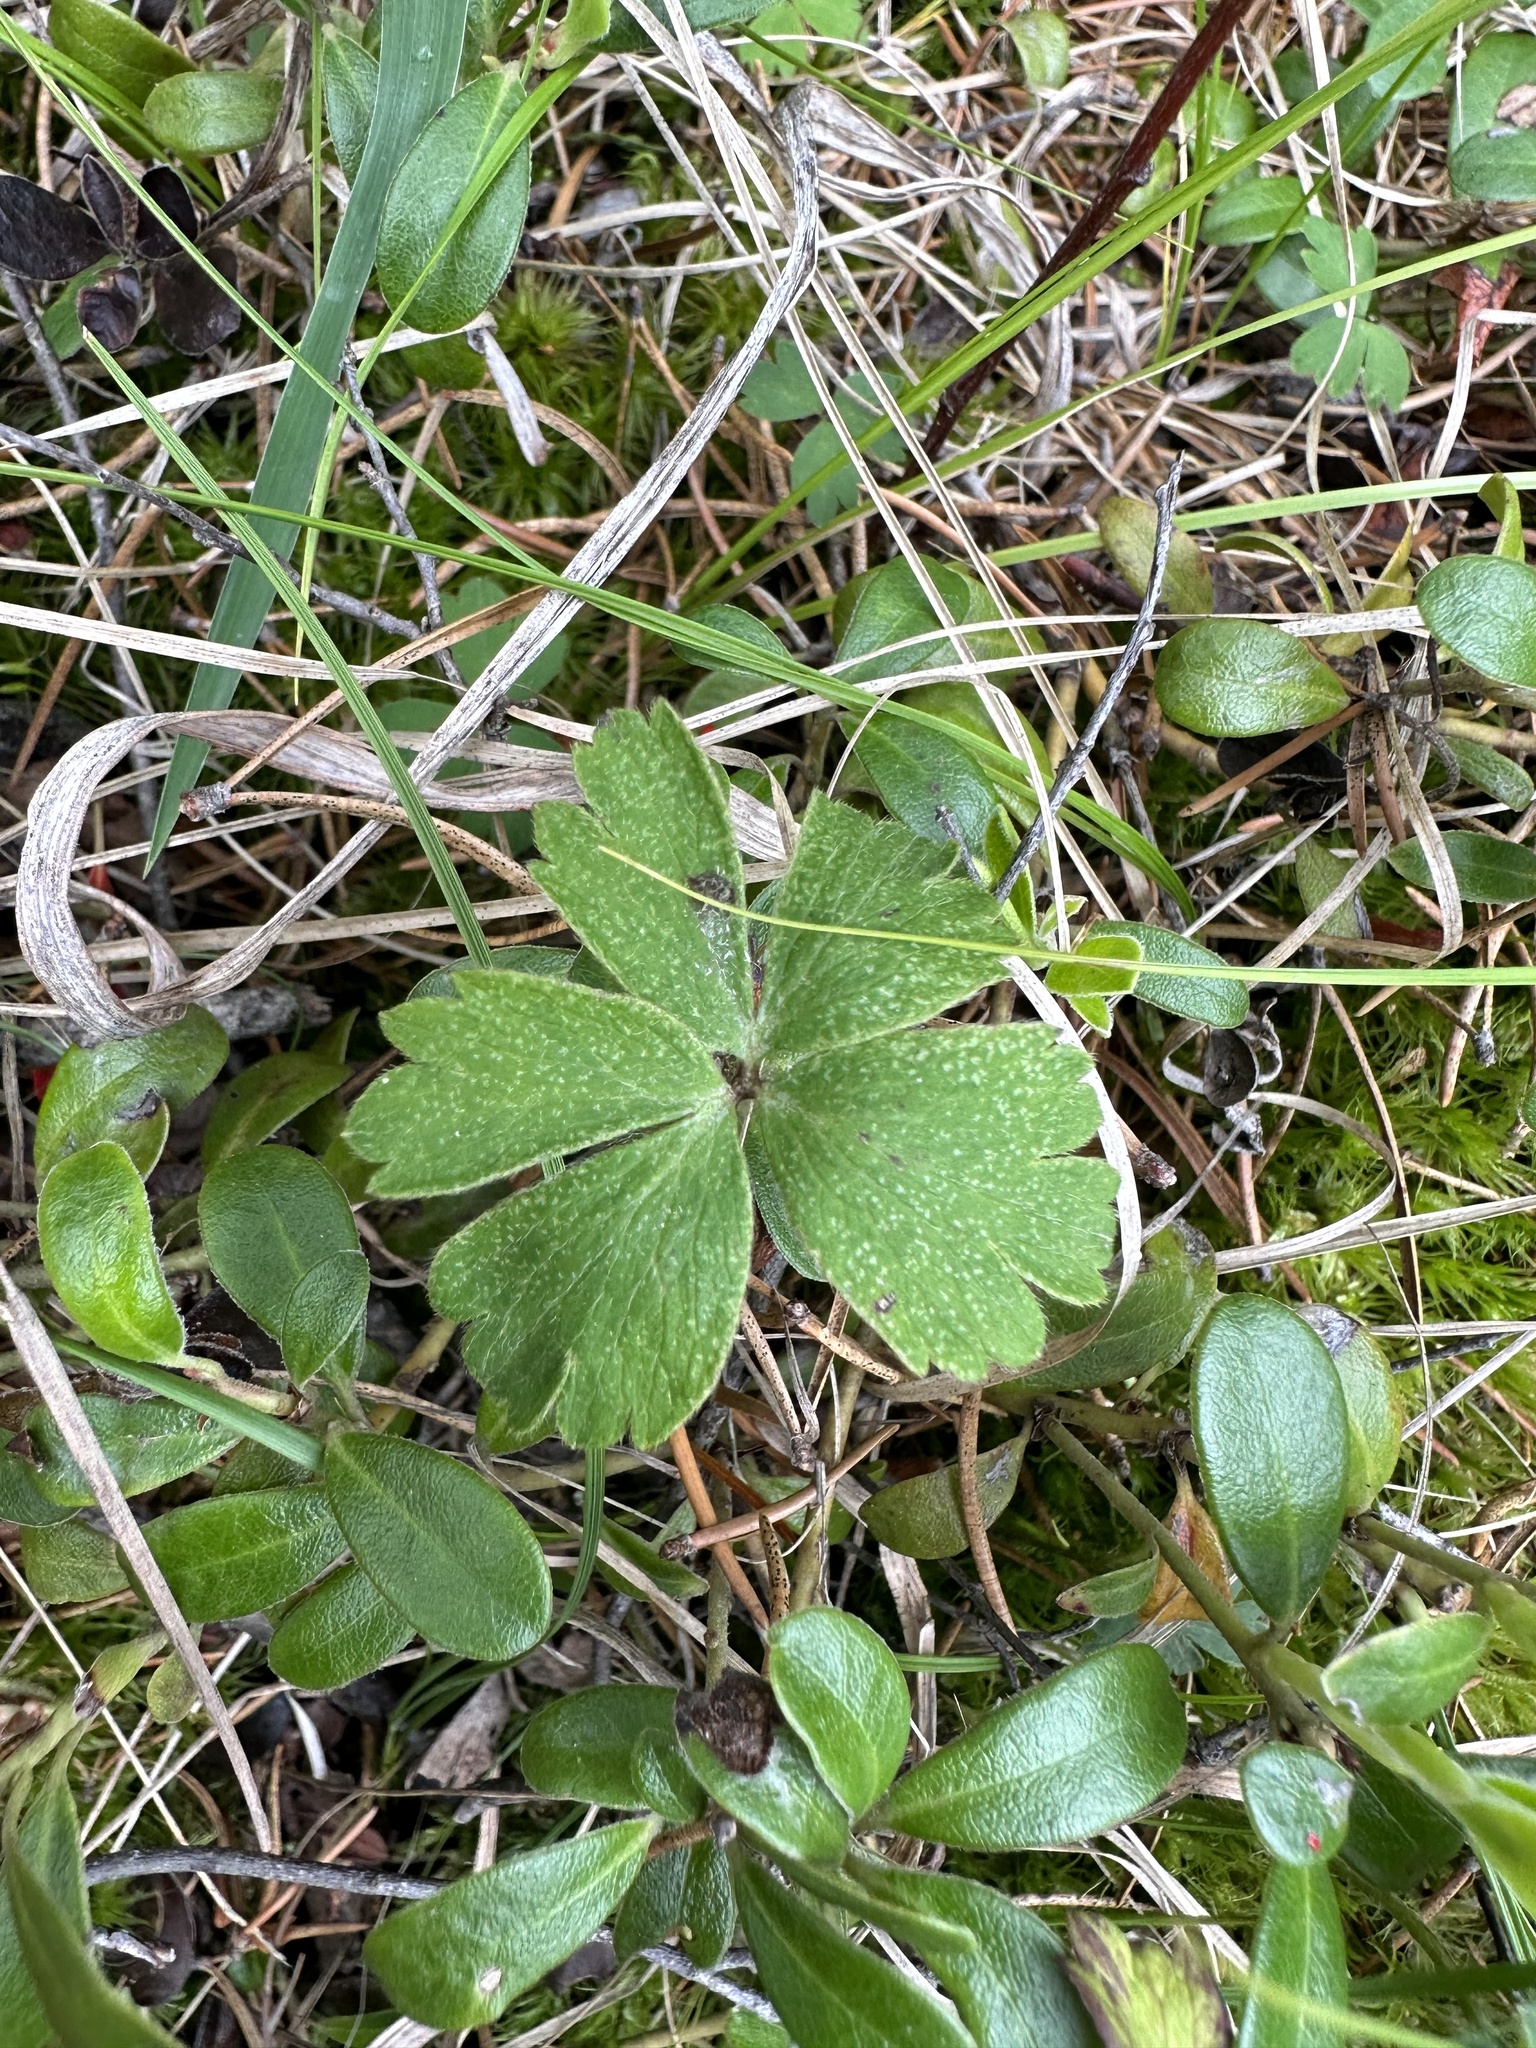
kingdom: Plantae
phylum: Tracheophyta
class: Magnoliopsida
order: Ranunculales
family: Ranunculaceae
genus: Anemone
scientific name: Anemone quinquefolia
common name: Wood anemone
